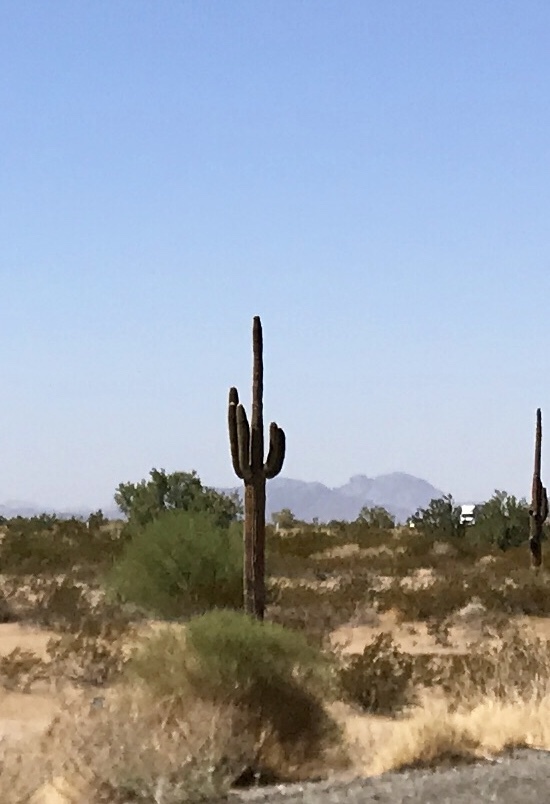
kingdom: Plantae
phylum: Tracheophyta
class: Magnoliopsida
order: Caryophyllales
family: Cactaceae
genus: Carnegiea
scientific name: Carnegiea gigantea
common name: Saguaro
